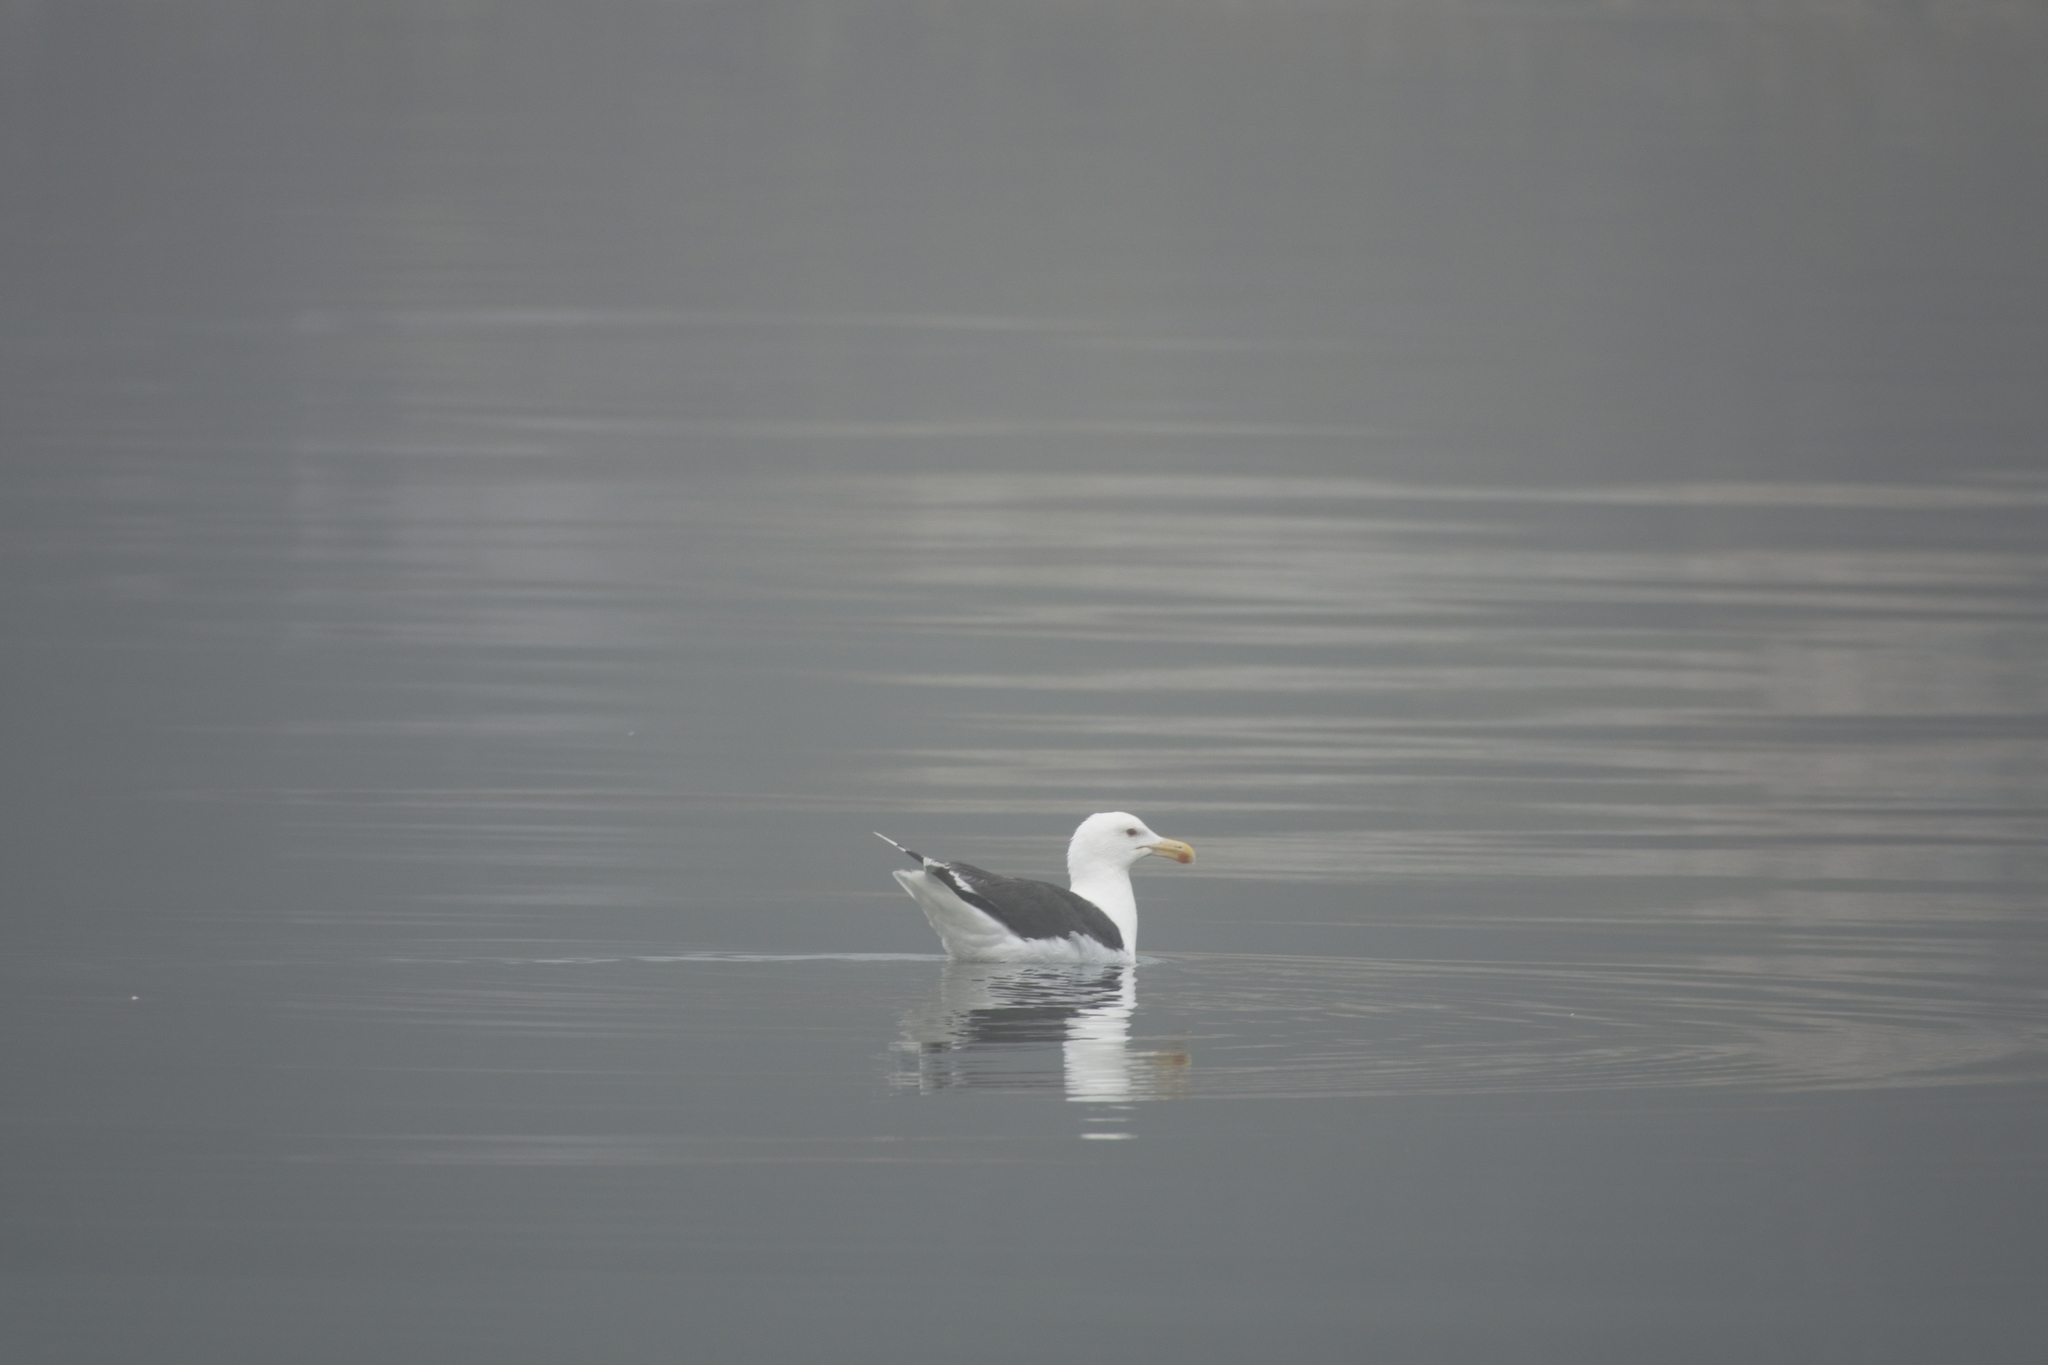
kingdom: Animalia
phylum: Chordata
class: Aves
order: Charadriiformes
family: Laridae
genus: Larus
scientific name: Larus marinus
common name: Great black-backed gull
